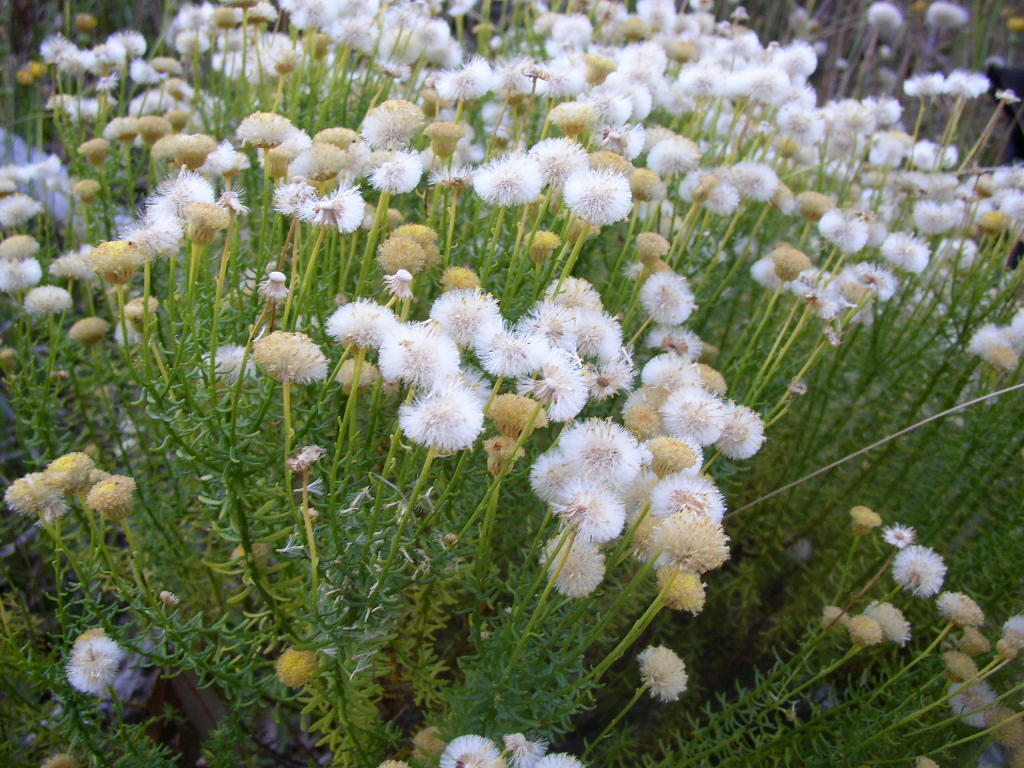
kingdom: Plantae
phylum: Tracheophyta
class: Magnoliopsida
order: Asterales
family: Asteraceae
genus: Chrysocoma
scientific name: Chrysocoma cernua
